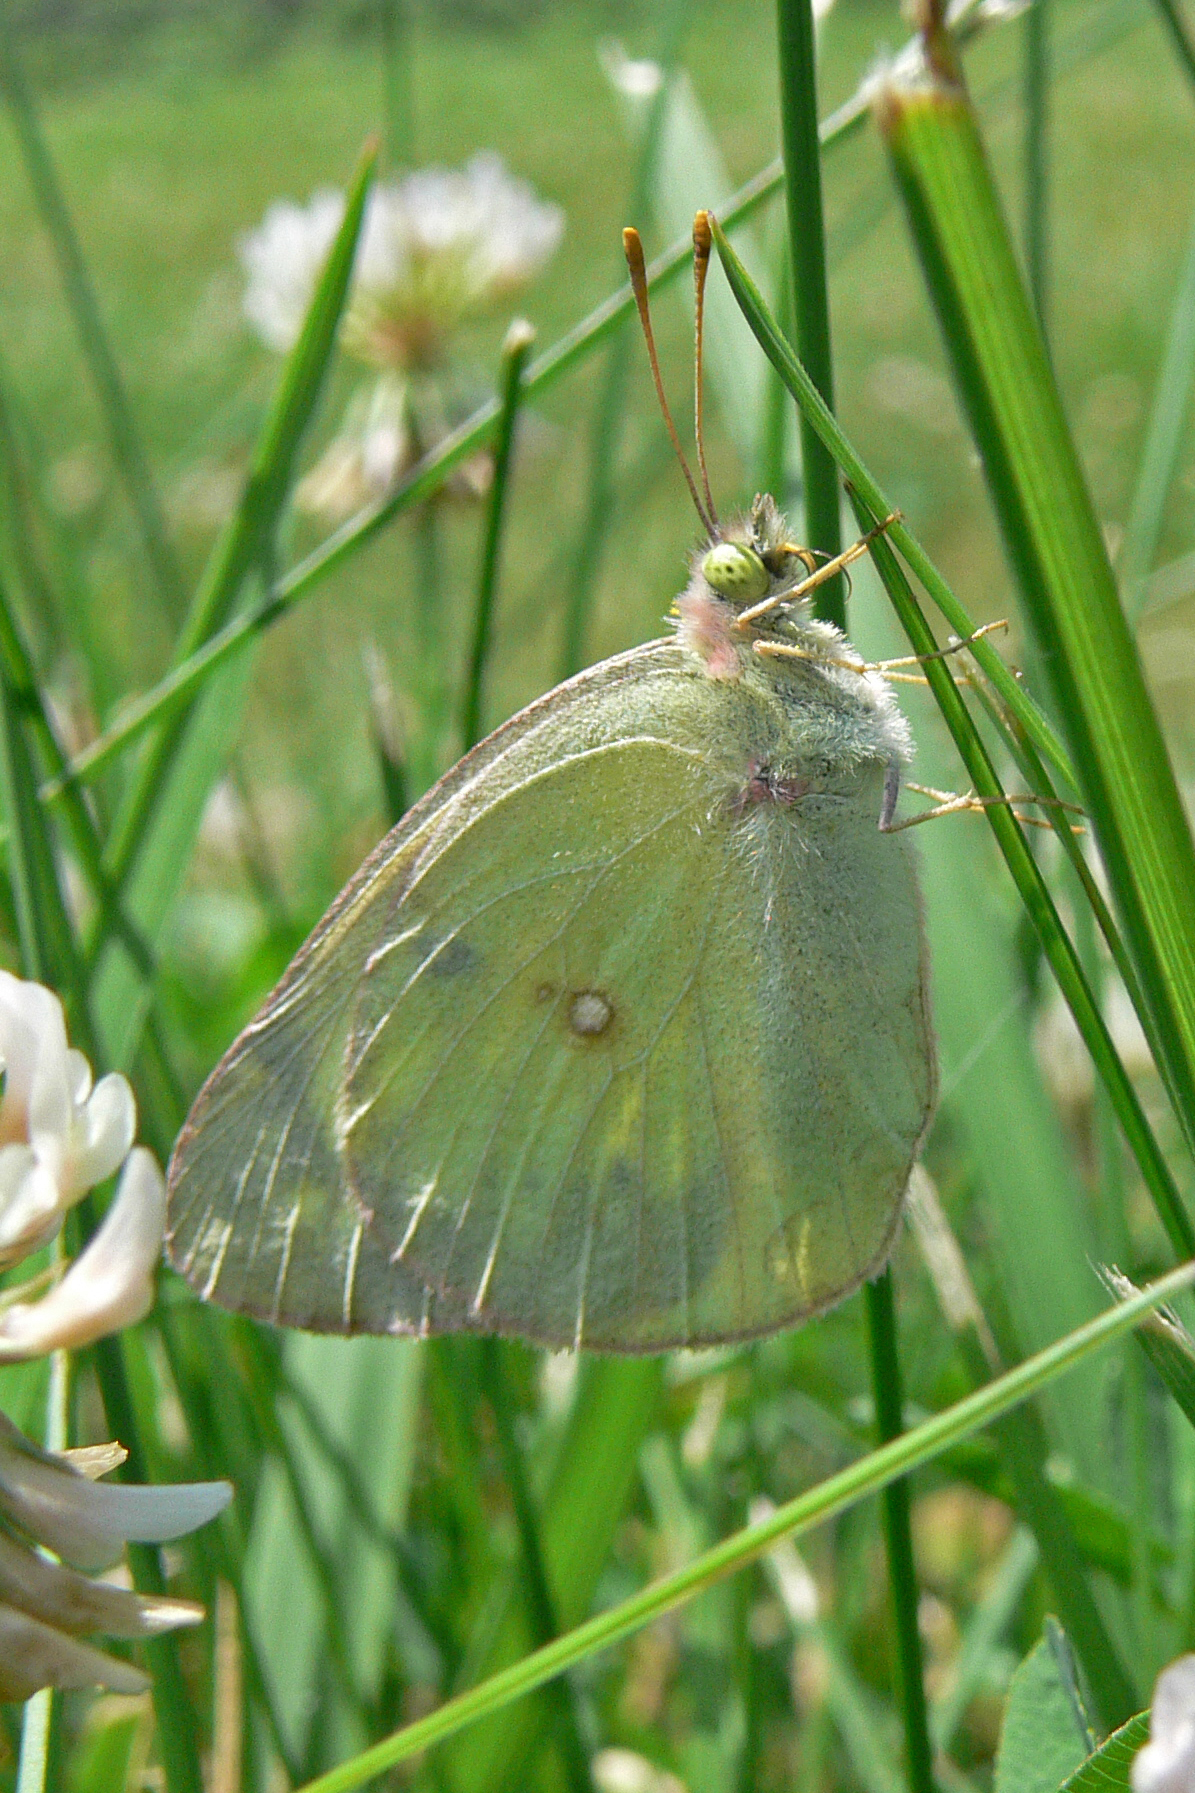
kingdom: Animalia
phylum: Arthropoda
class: Insecta
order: Lepidoptera
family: Pieridae
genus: Colias
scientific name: Colias philodice
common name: Clouded sulphur
